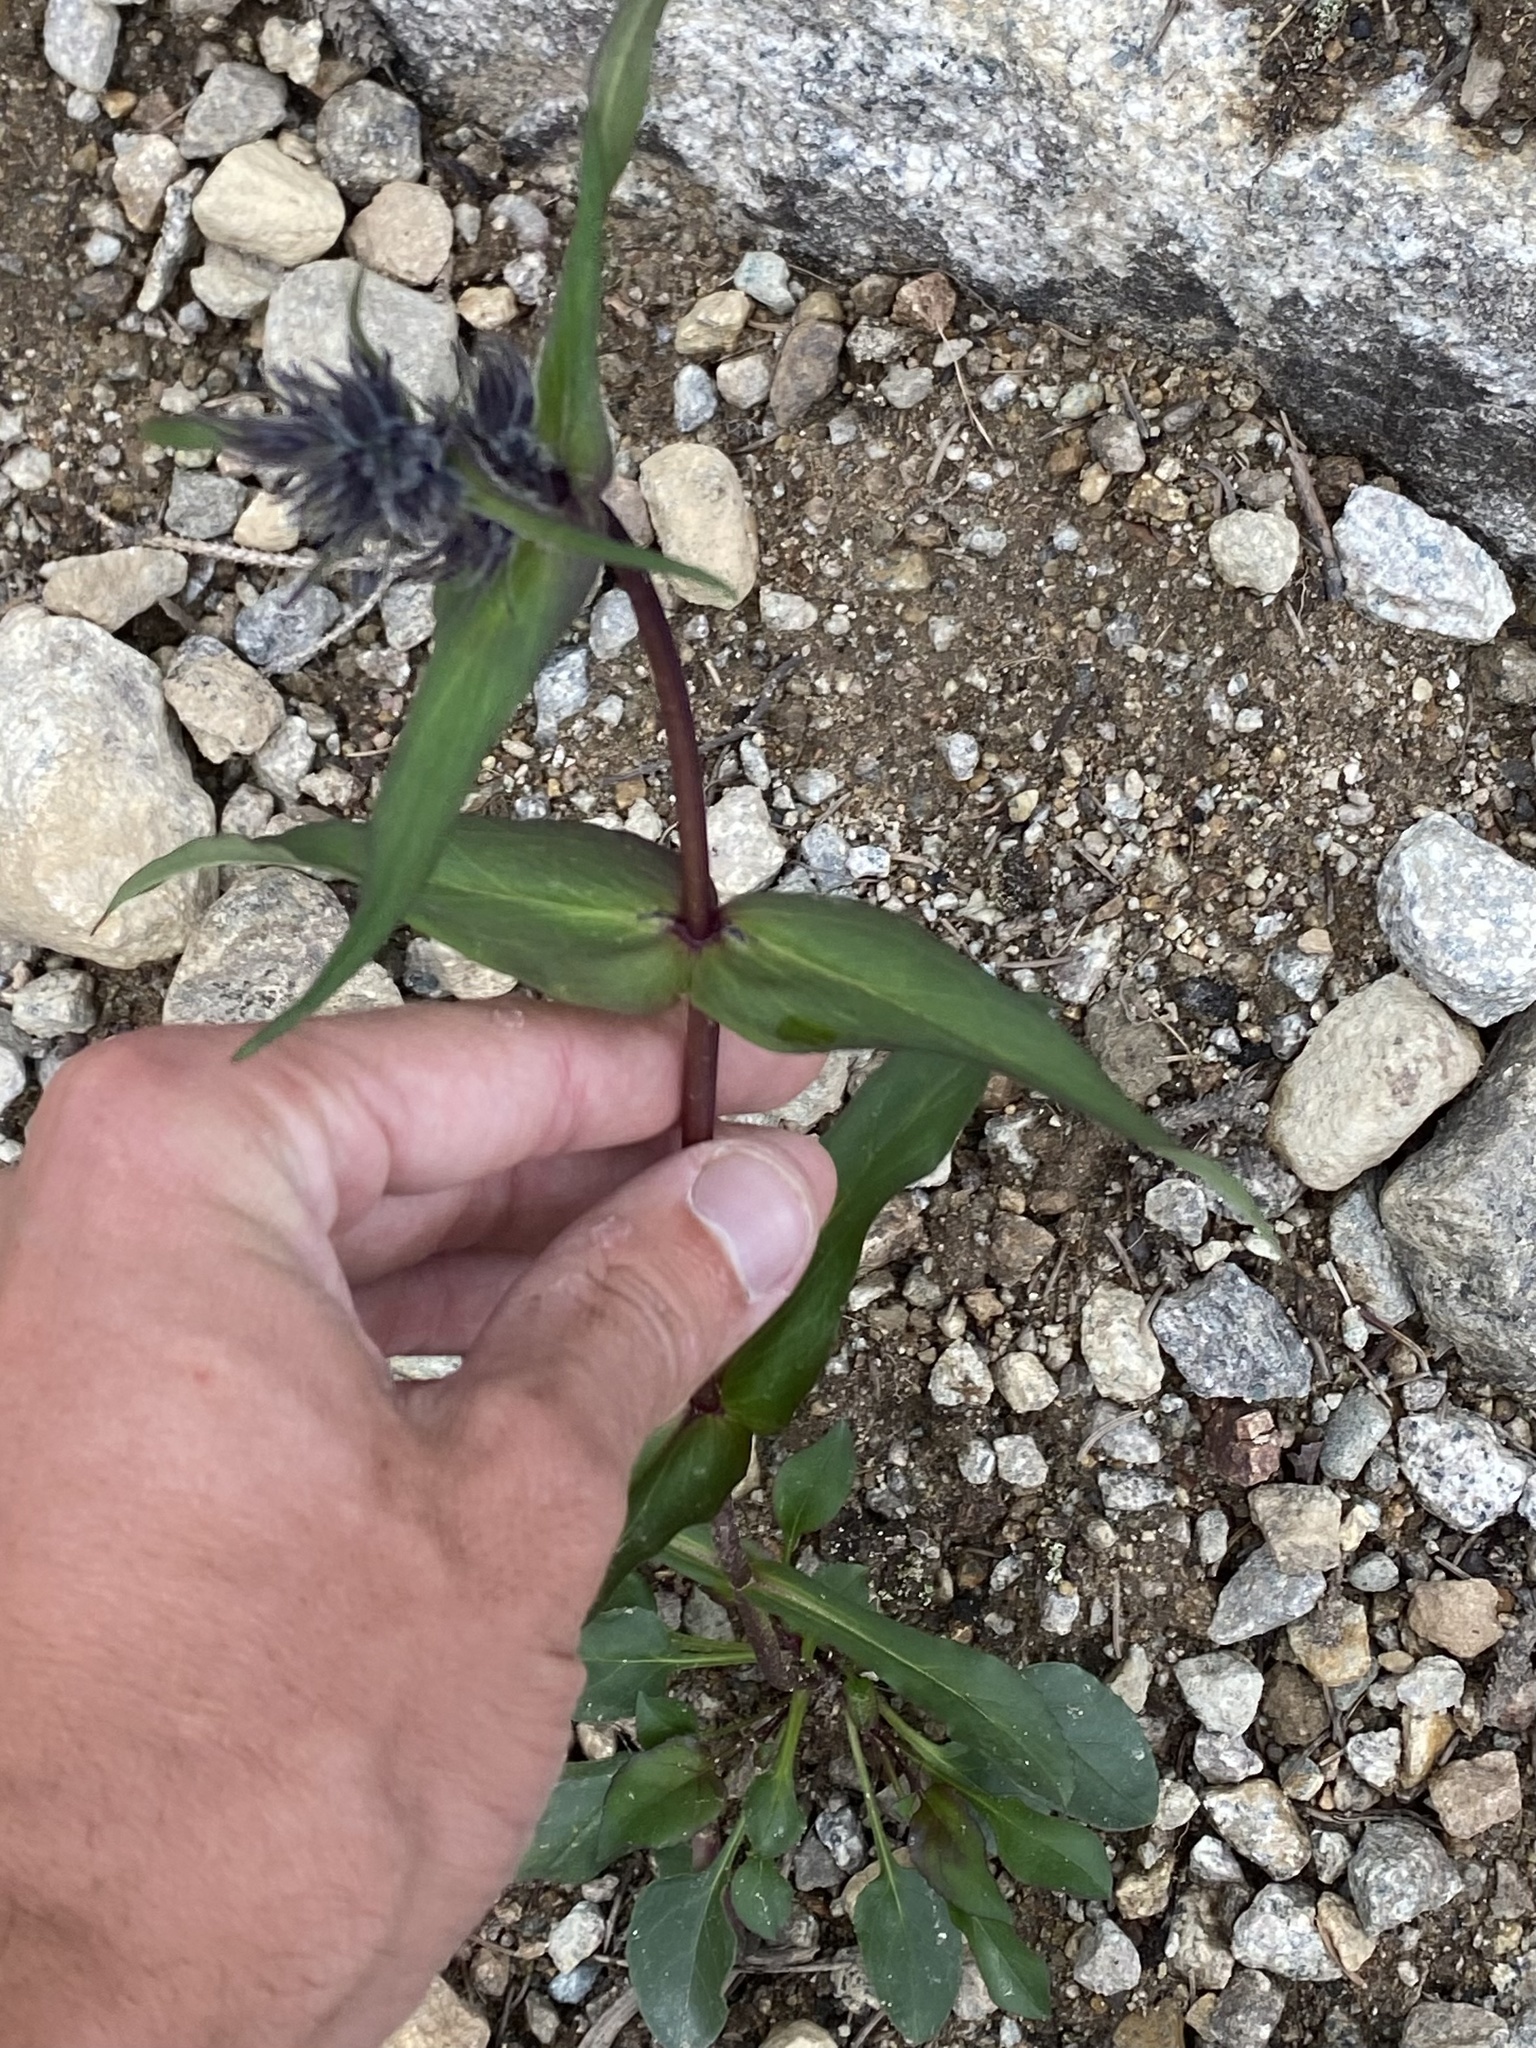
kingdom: Plantae
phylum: Tracheophyta
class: Magnoliopsida
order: Lamiales
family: Plantaginaceae
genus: Penstemon
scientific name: Penstemon whippleanus
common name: Whipple's penstemon
